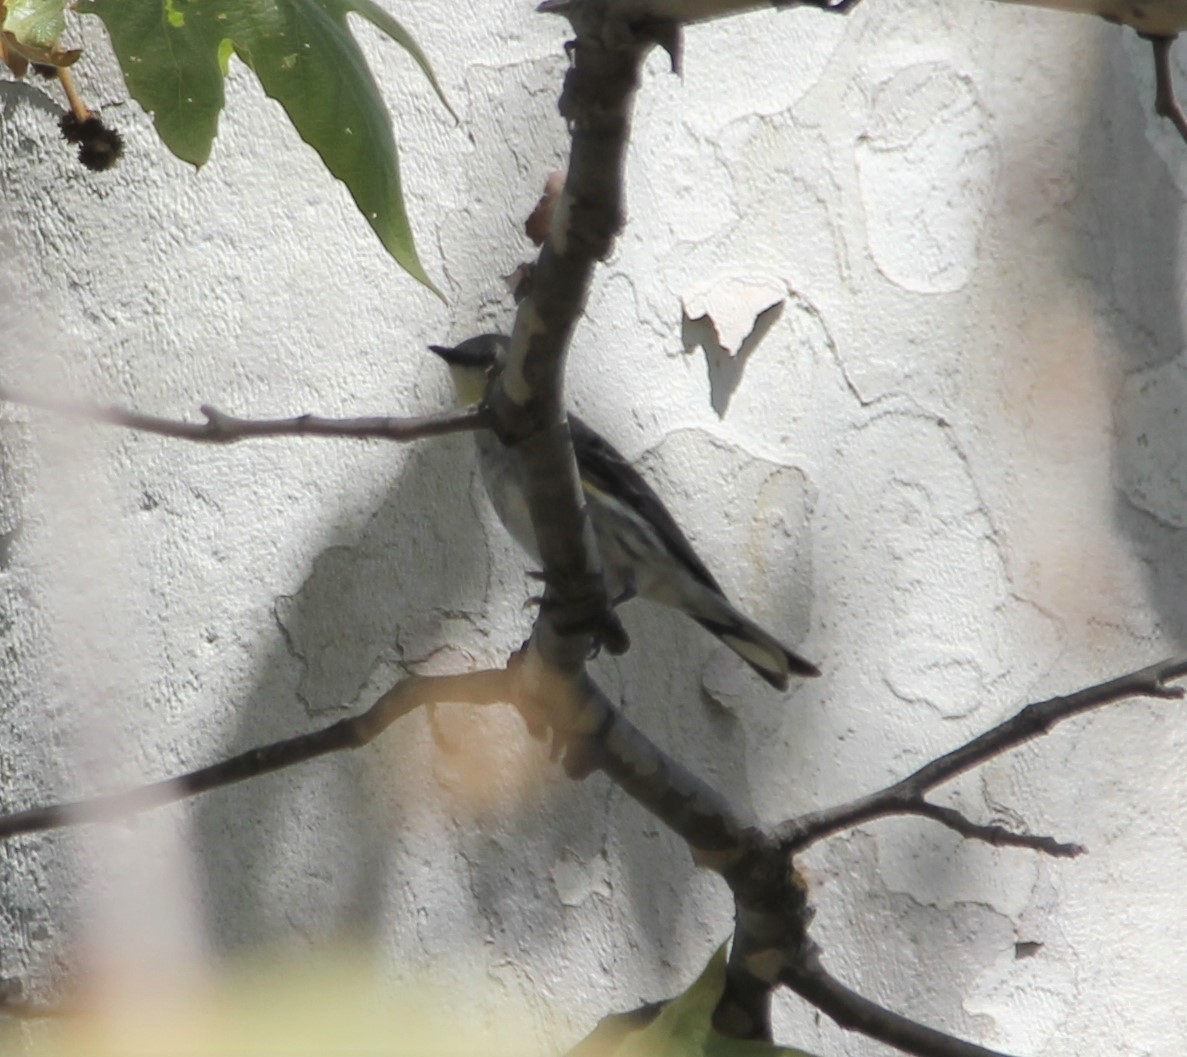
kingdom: Animalia
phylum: Chordata
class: Aves
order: Passeriformes
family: Parulidae
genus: Setophaga
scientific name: Setophaga auduboni
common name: Audubon's warbler
